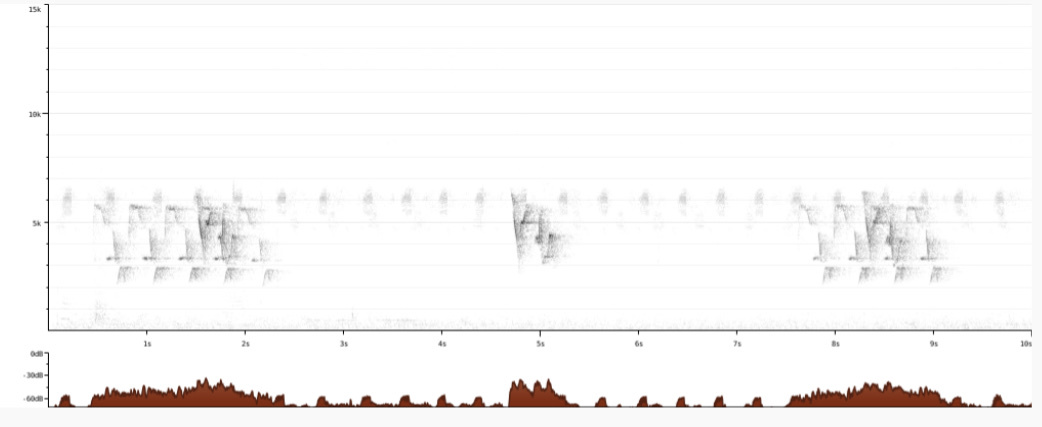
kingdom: Animalia
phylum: Chordata
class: Aves
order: Passeriformes
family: Troglodytidae
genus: Thryothorus
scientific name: Thryothorus ludovicianus
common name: Carolina wren
